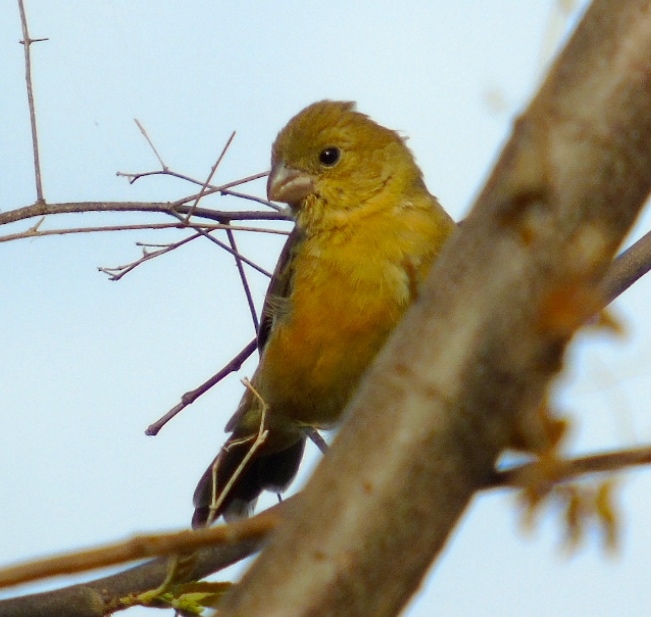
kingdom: Animalia
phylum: Chordata
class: Aves
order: Passeriformes
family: Thraupidae
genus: Sporophila
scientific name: Sporophila torqueola
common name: White-collared seedeater
